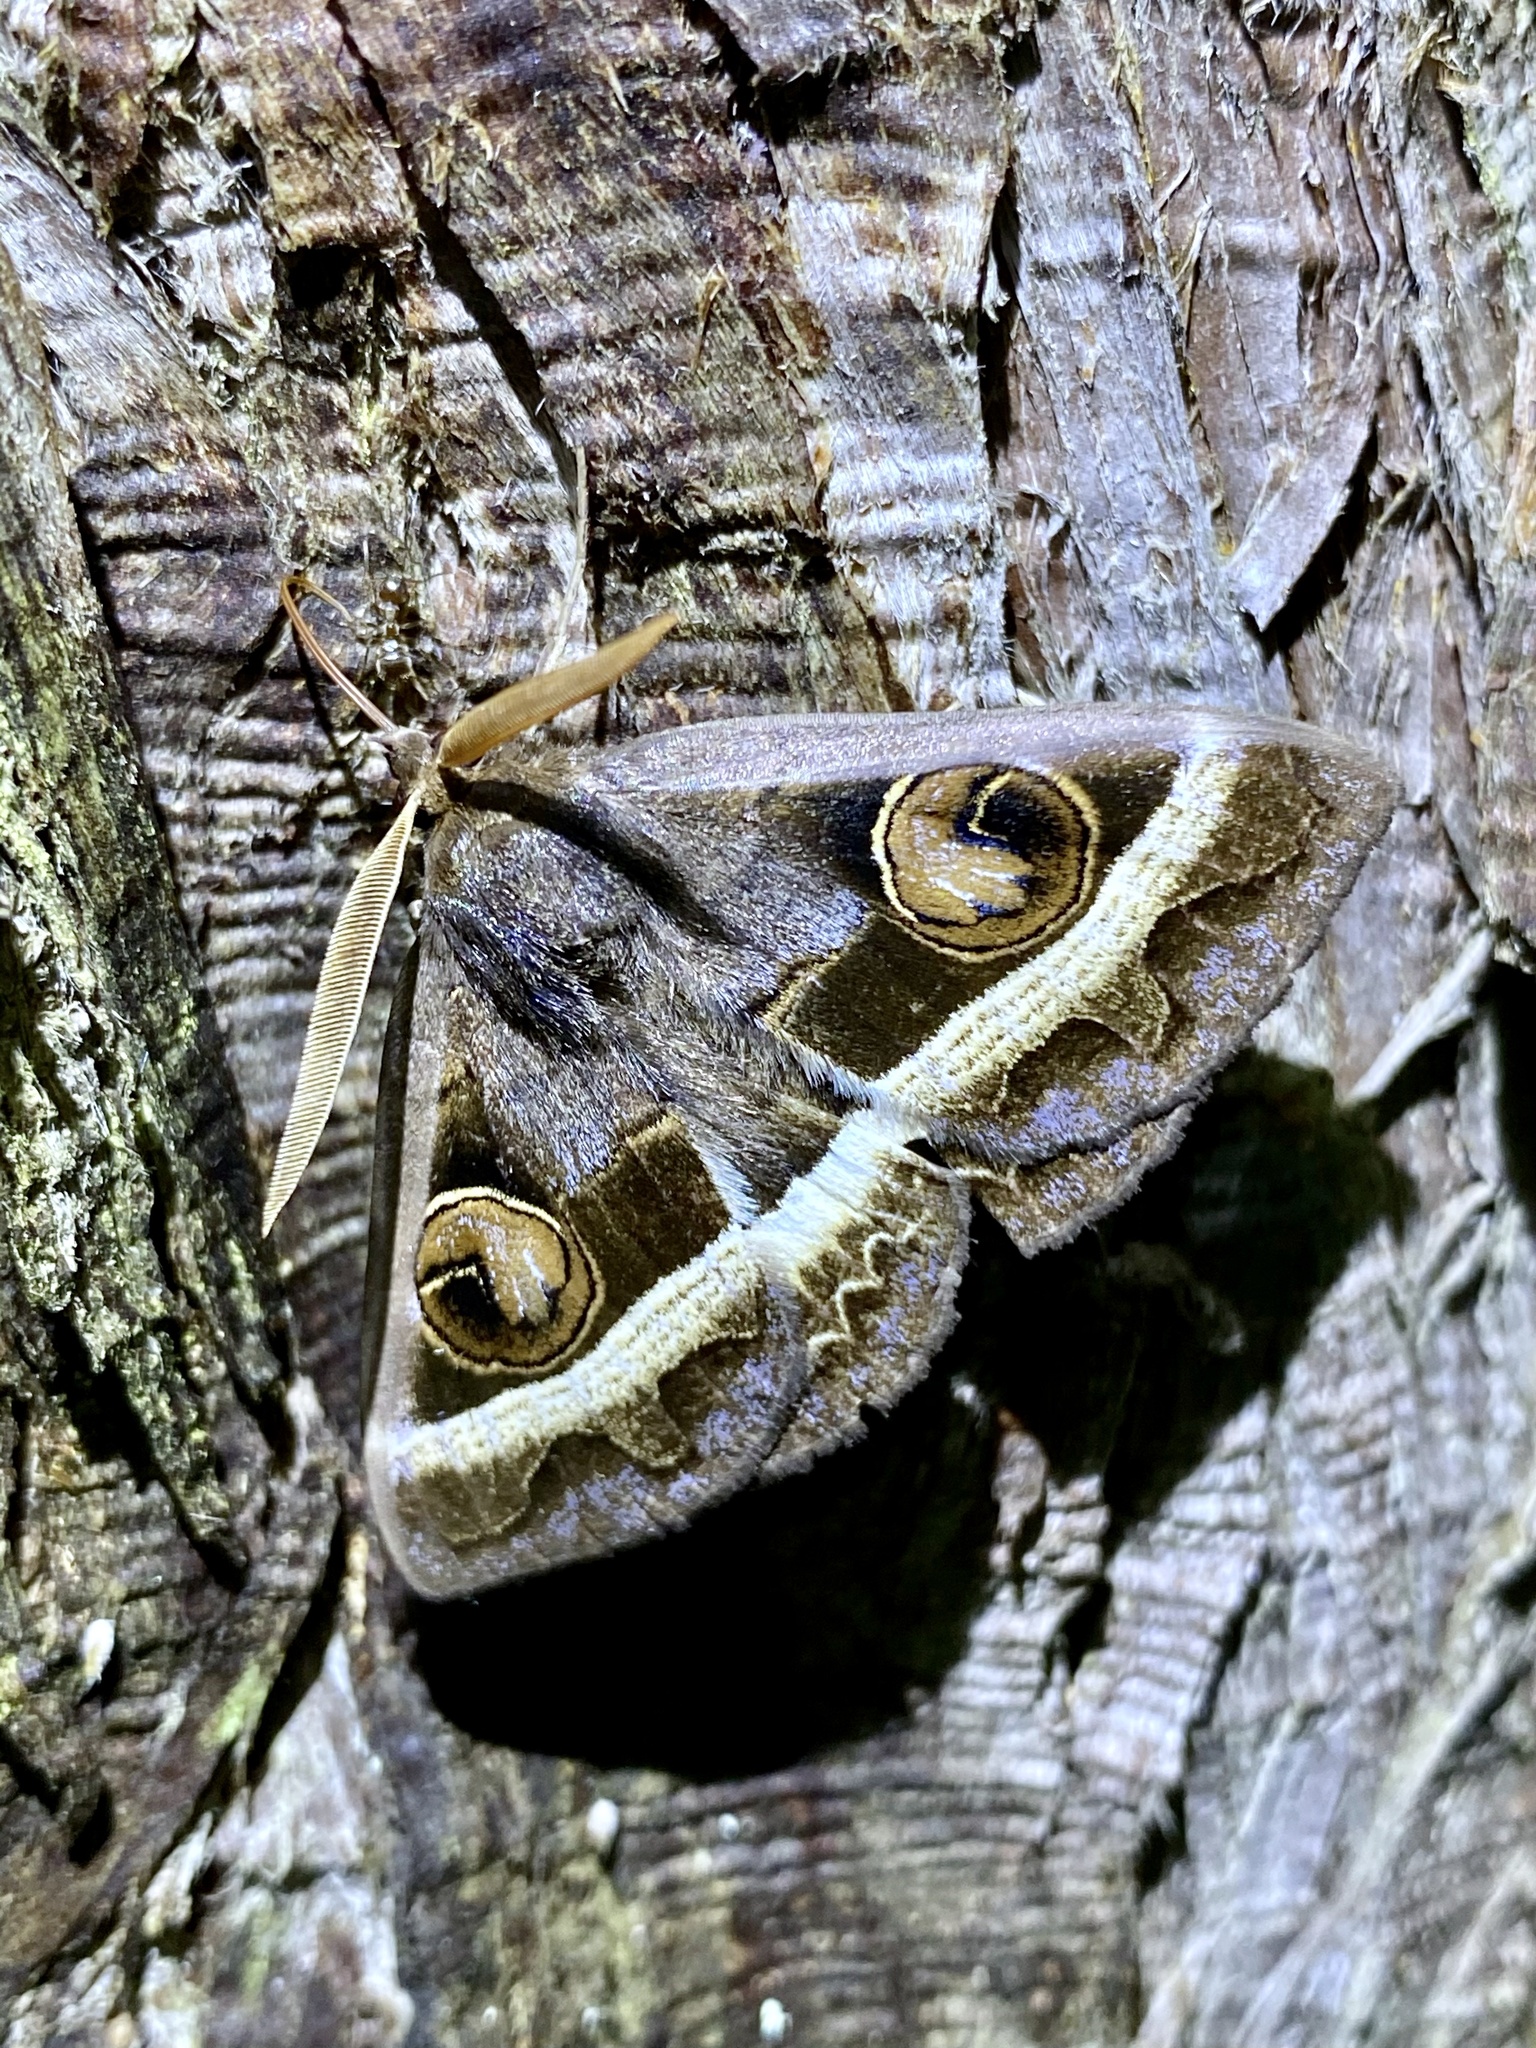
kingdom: Animalia
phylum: Arthropoda
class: Insecta
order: Lepidoptera
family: Erebidae
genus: Metopta
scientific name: Metopta rectifasciata
